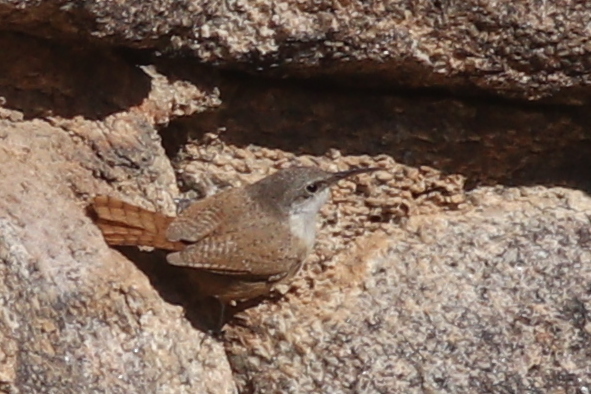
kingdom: Animalia
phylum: Chordata
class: Aves
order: Passeriformes
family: Troglodytidae
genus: Catherpes
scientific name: Catherpes mexicanus
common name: Canyon wren
